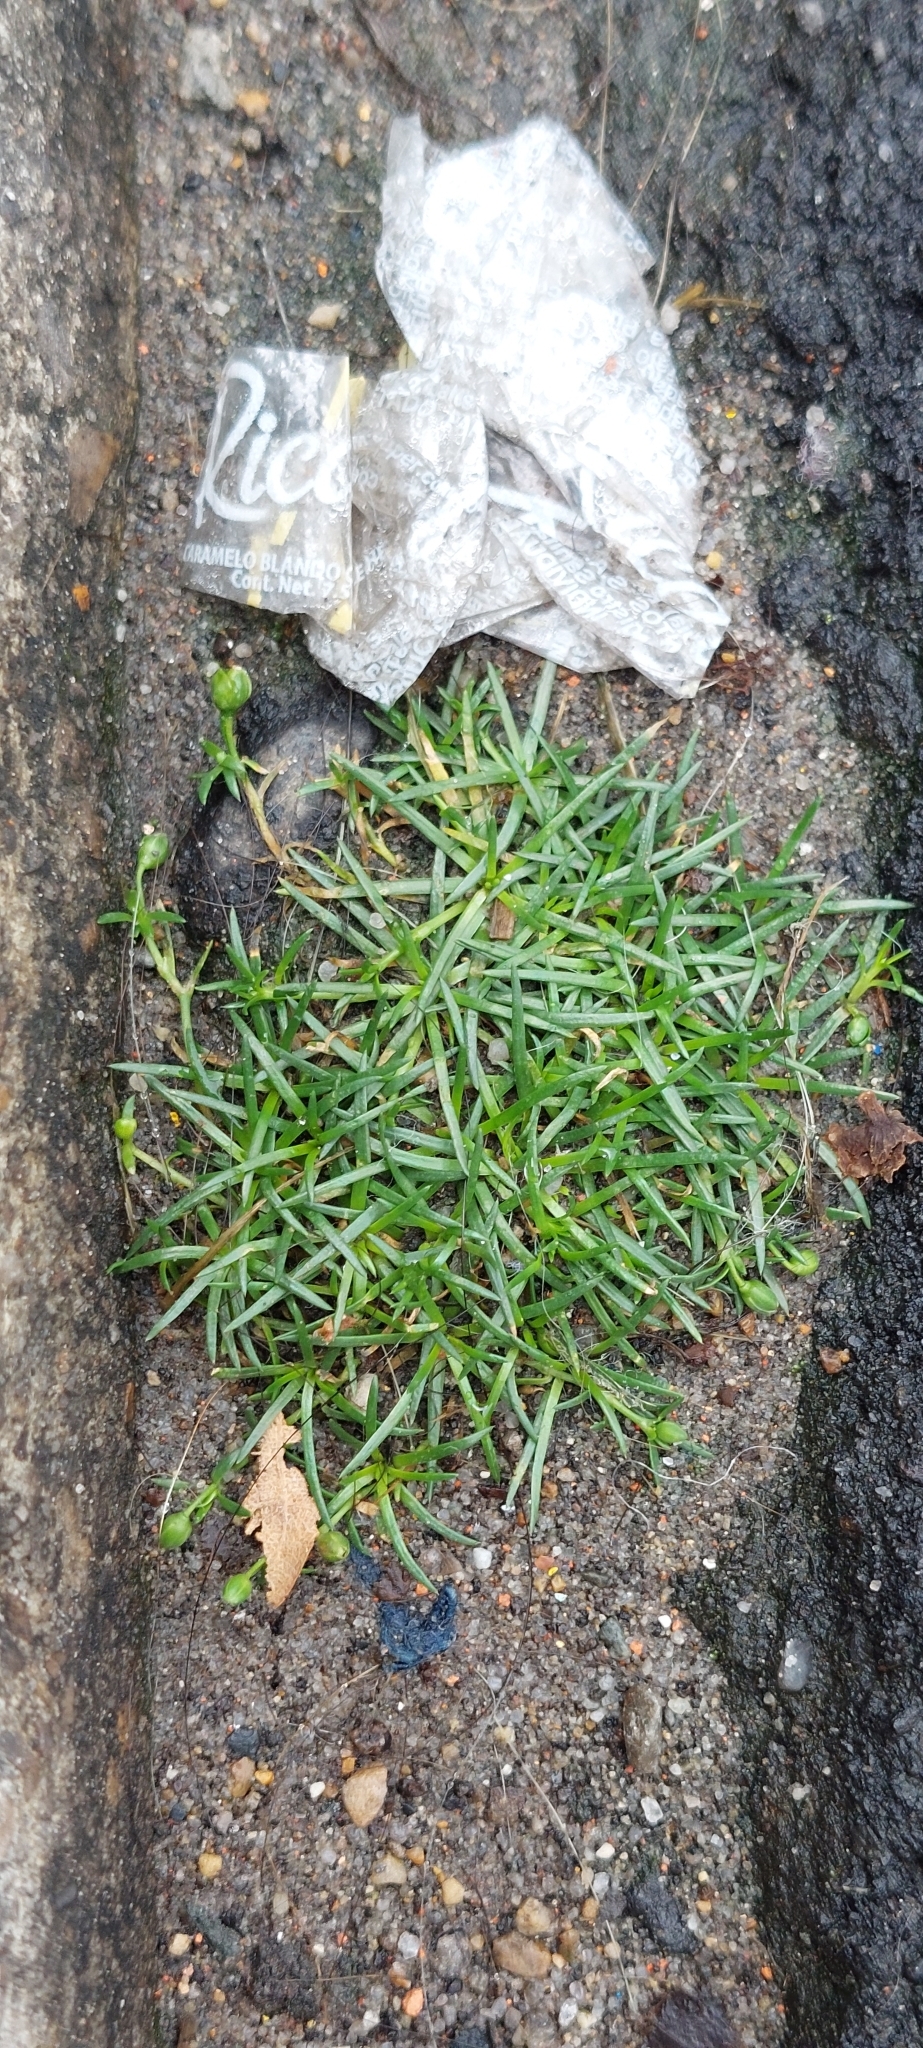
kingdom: Plantae
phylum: Tracheophyta
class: Magnoliopsida
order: Caryophyllales
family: Caryophyllaceae
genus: Sagina
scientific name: Sagina procumbens
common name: Procumbent pearlwort
